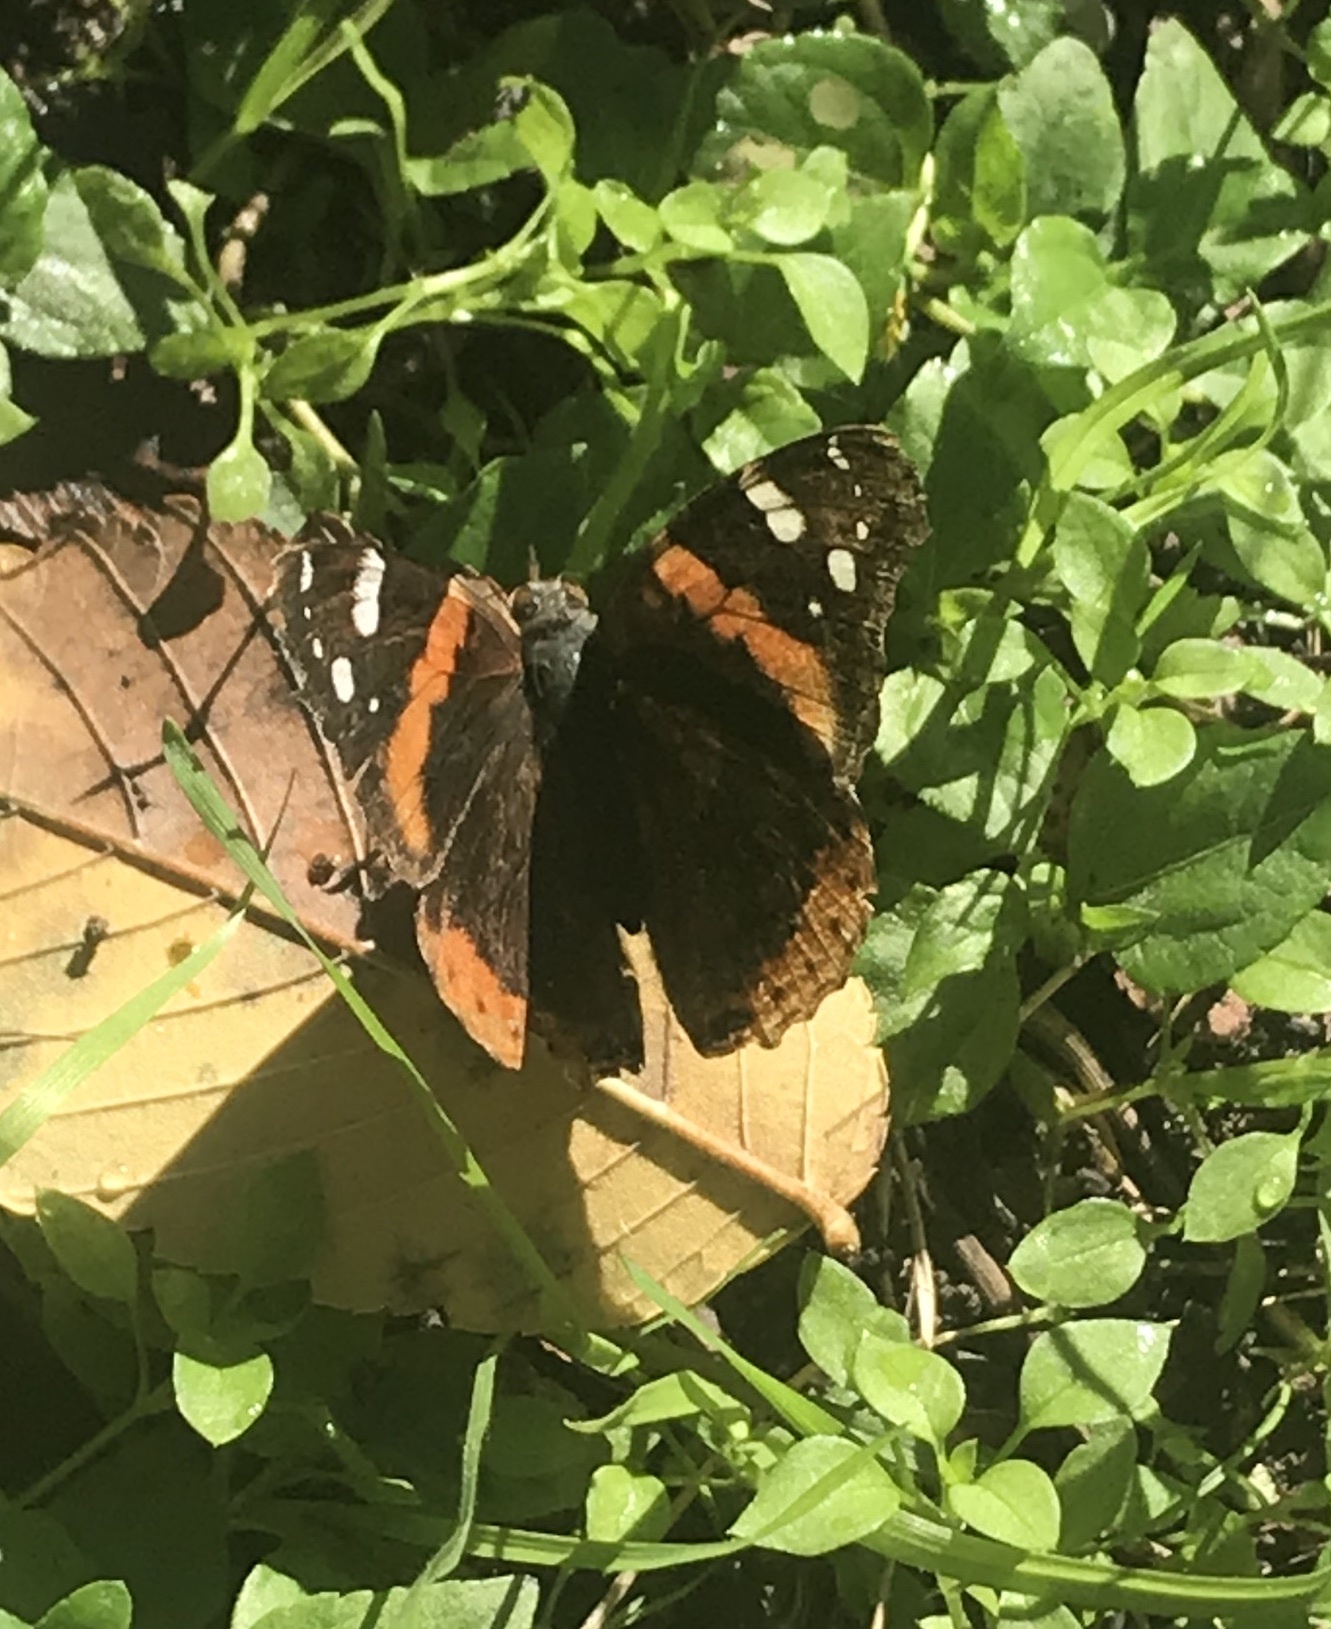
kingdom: Animalia
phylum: Arthropoda
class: Insecta
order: Lepidoptera
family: Nymphalidae
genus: Vanessa
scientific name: Vanessa atalanta
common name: Red admiral
